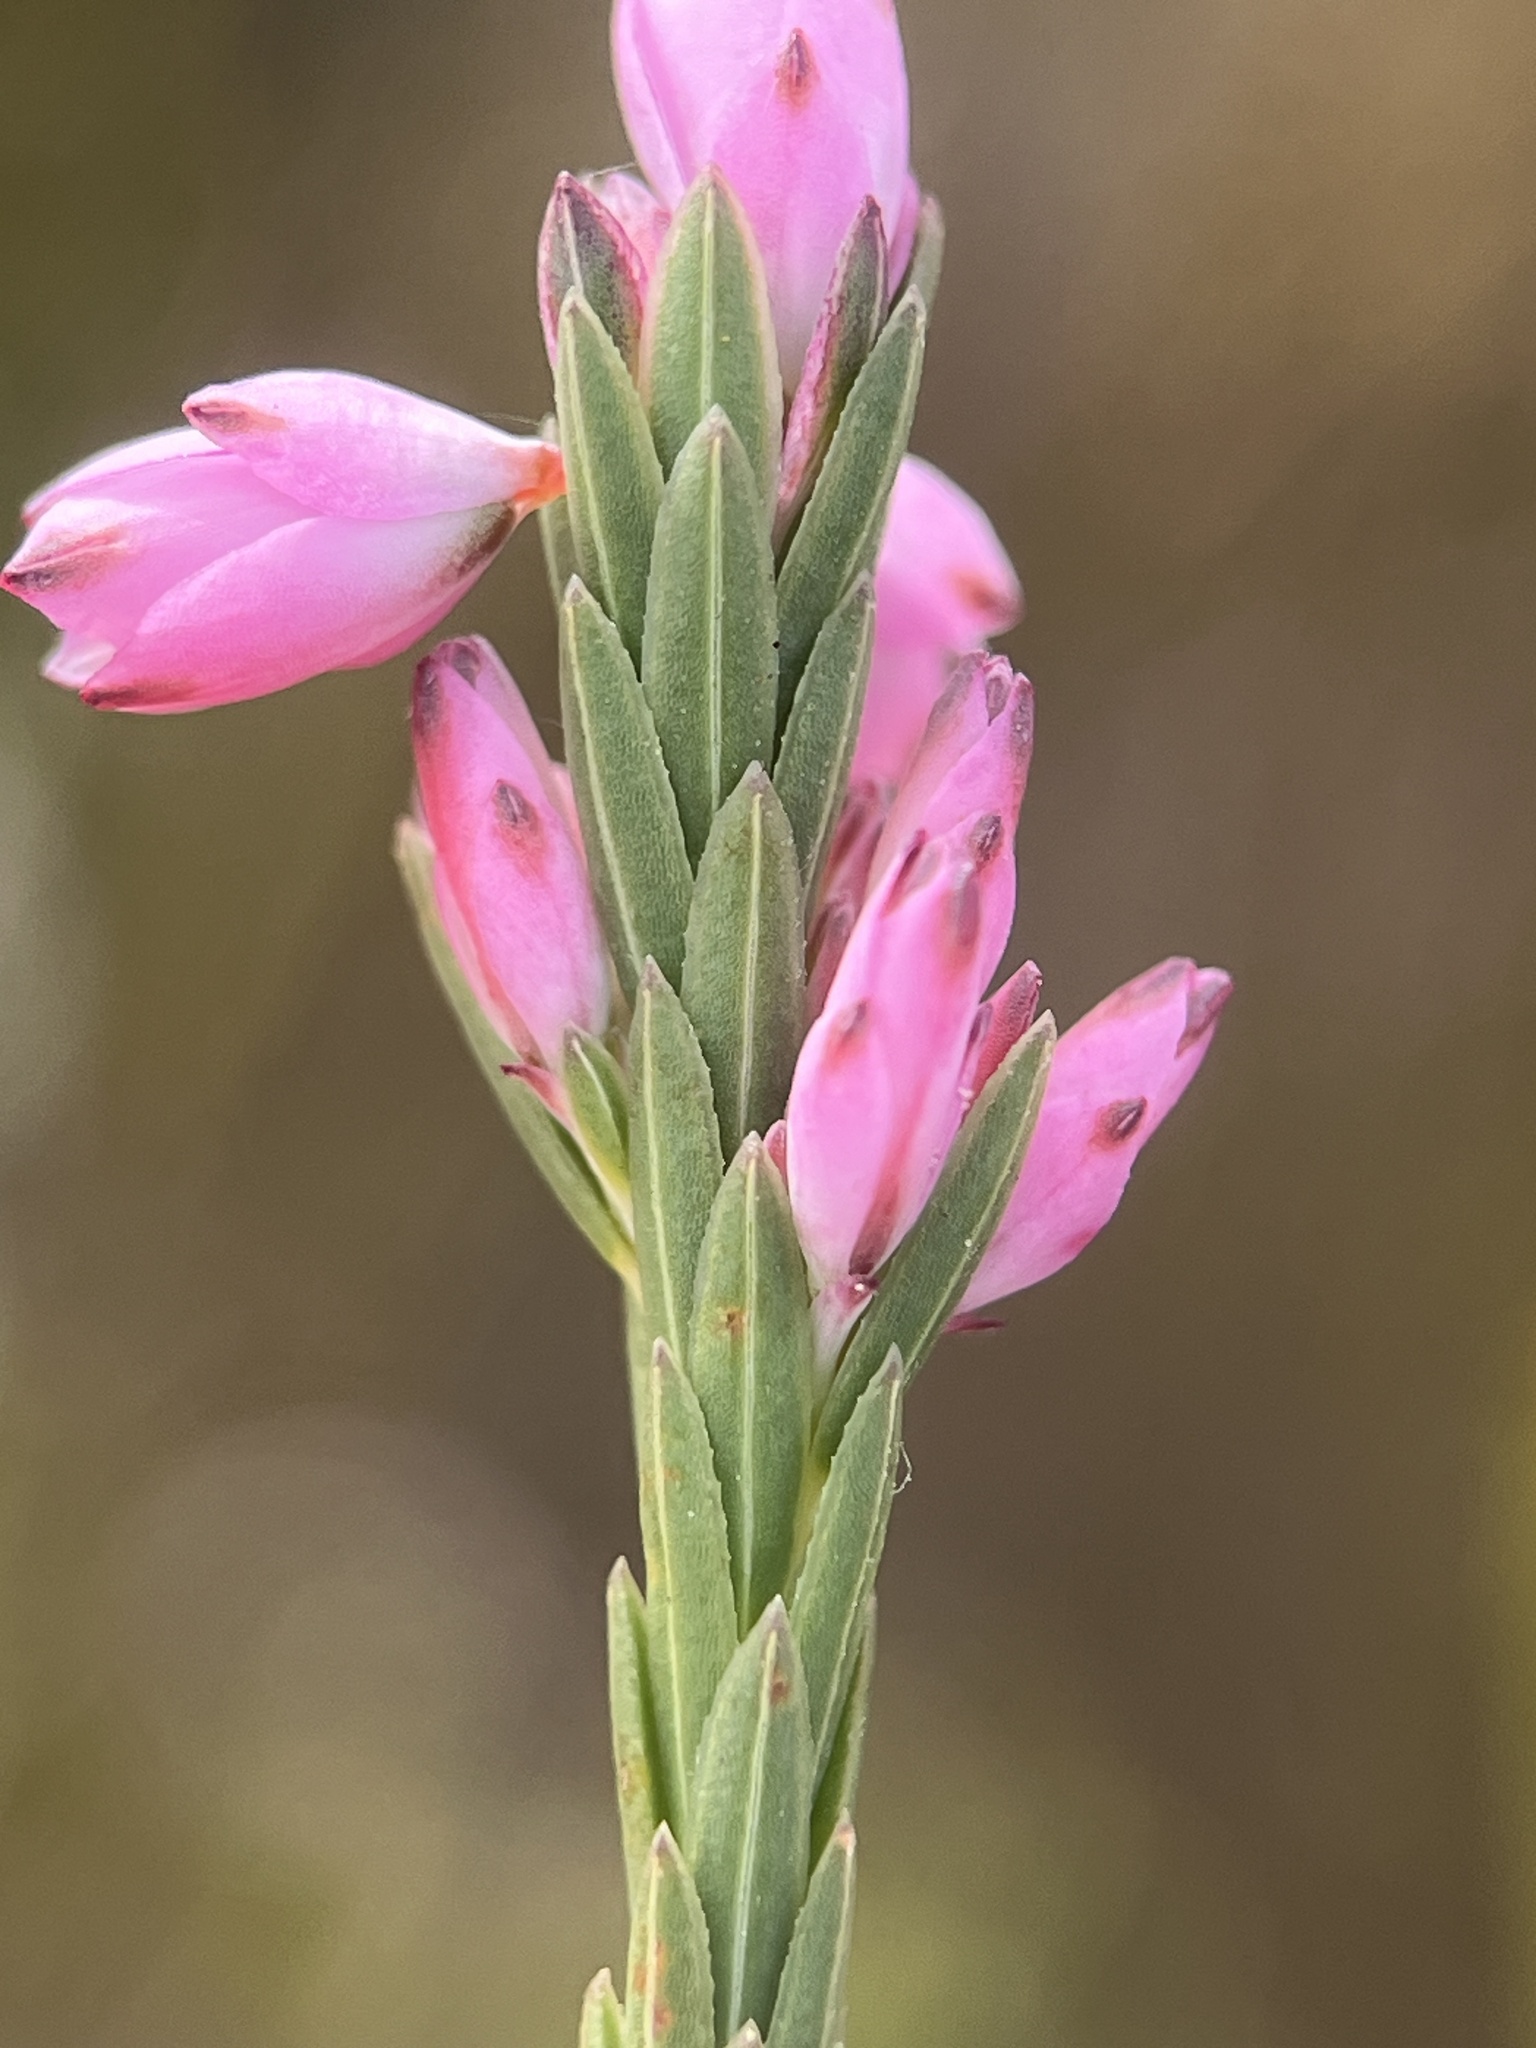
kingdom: Plantae
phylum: Tracheophyta
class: Magnoliopsida
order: Ericales
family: Ericaceae
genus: Erica
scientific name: Erica corifolia
